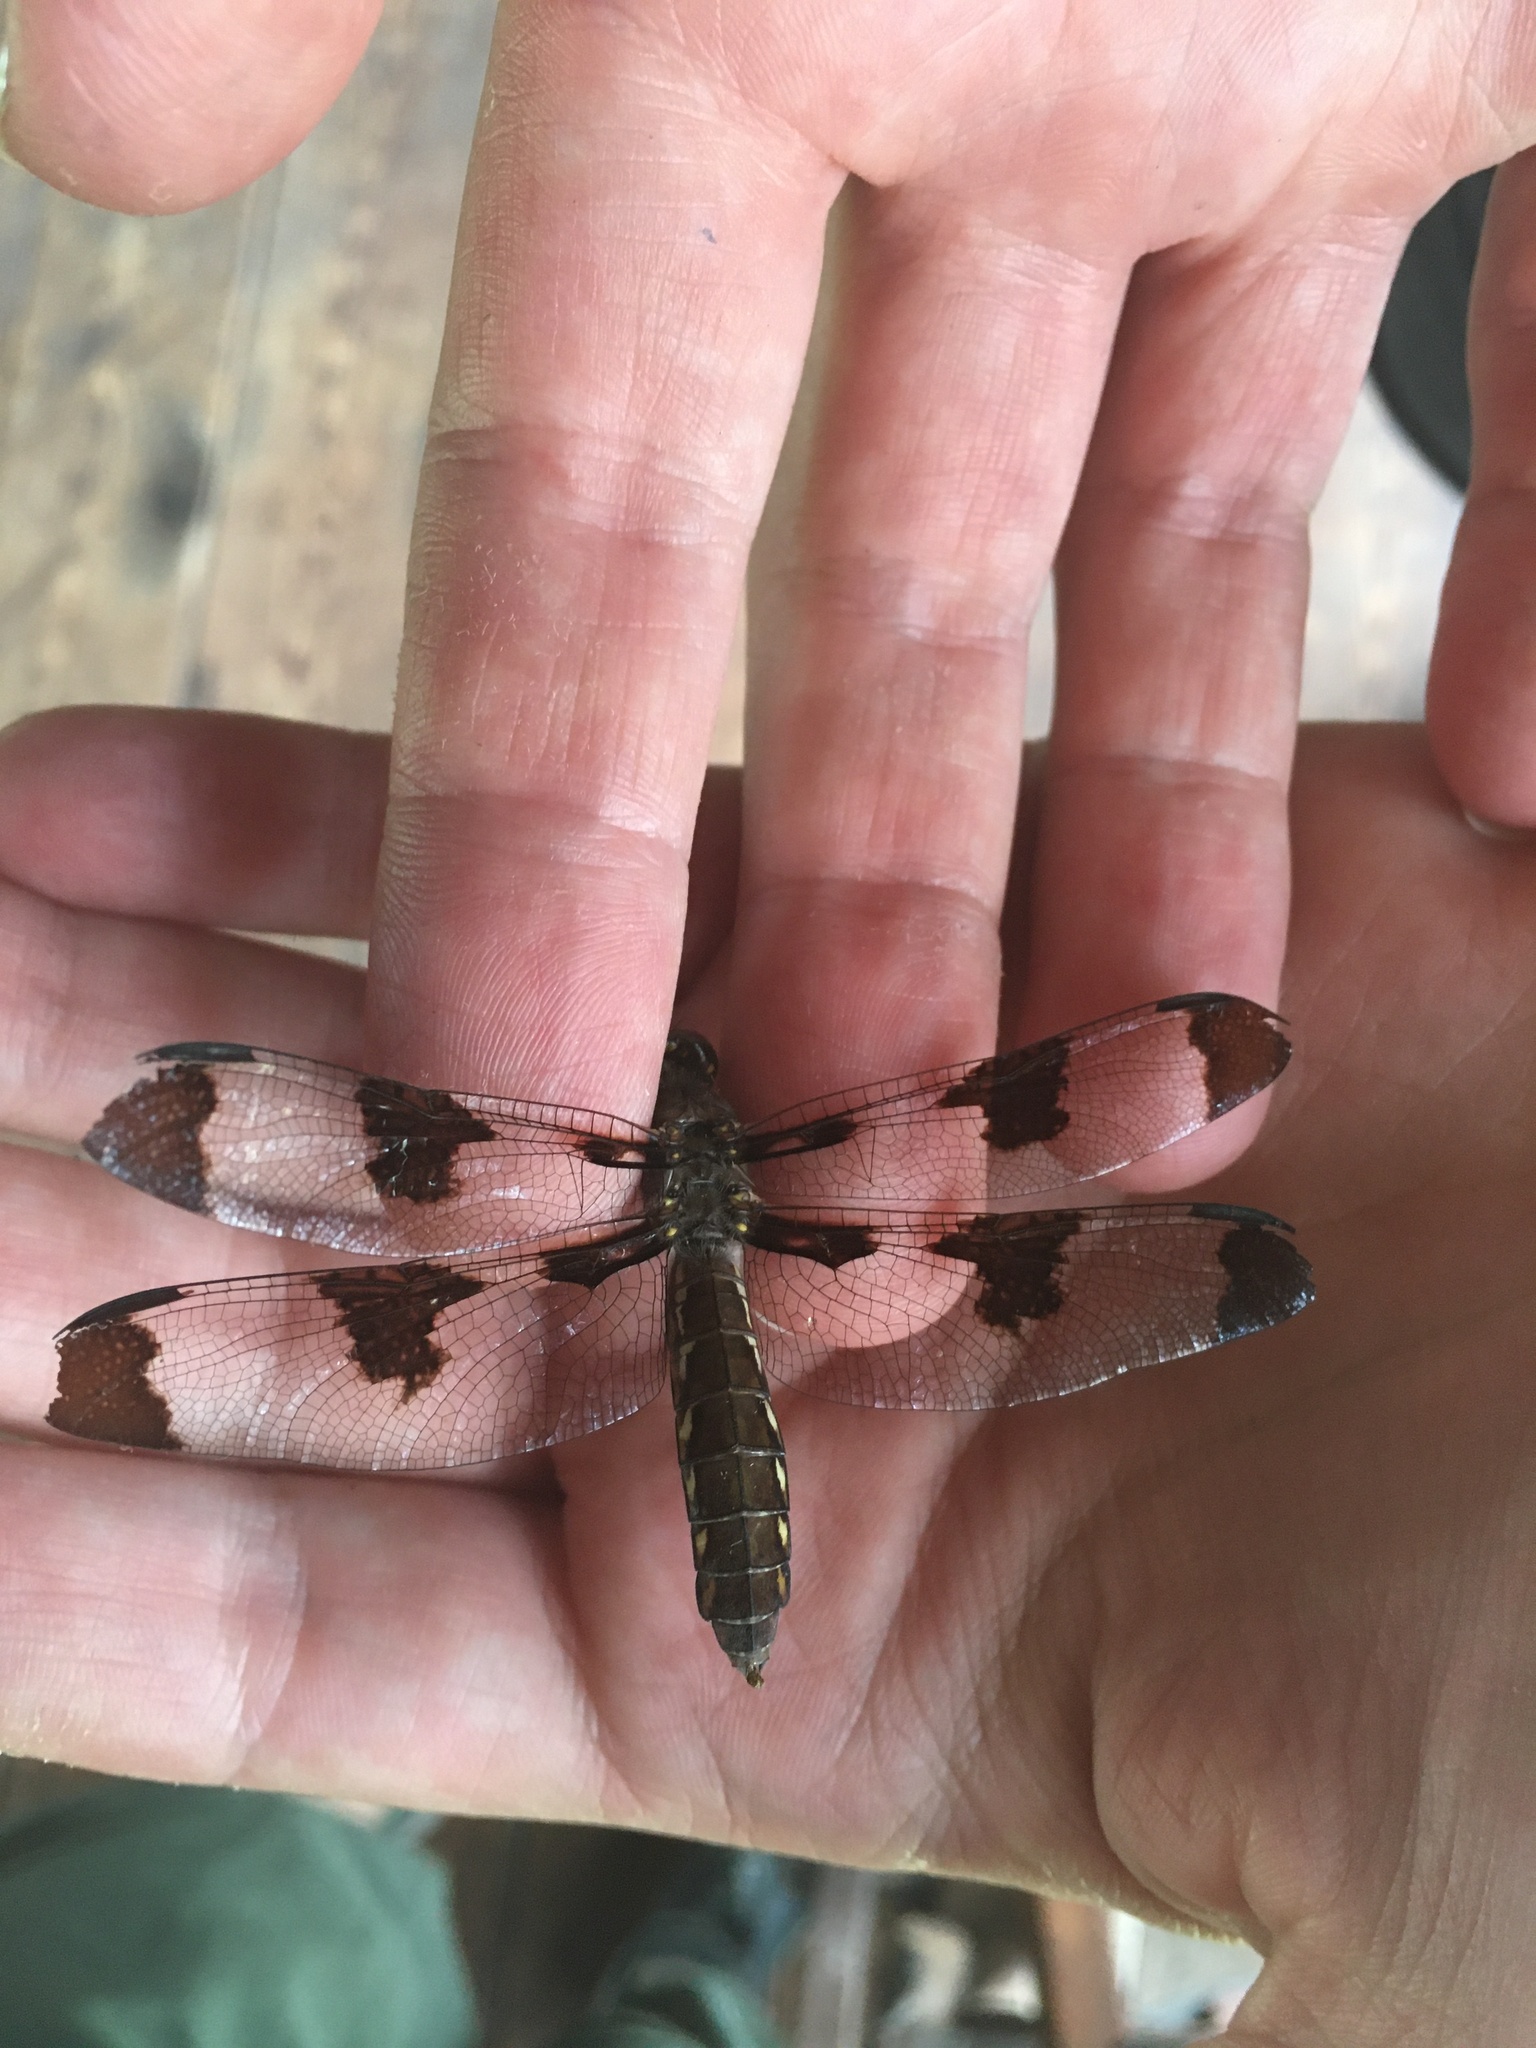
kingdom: Animalia
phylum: Arthropoda
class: Insecta
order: Odonata
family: Libellulidae
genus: Plathemis
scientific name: Plathemis lydia
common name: Common whitetail
